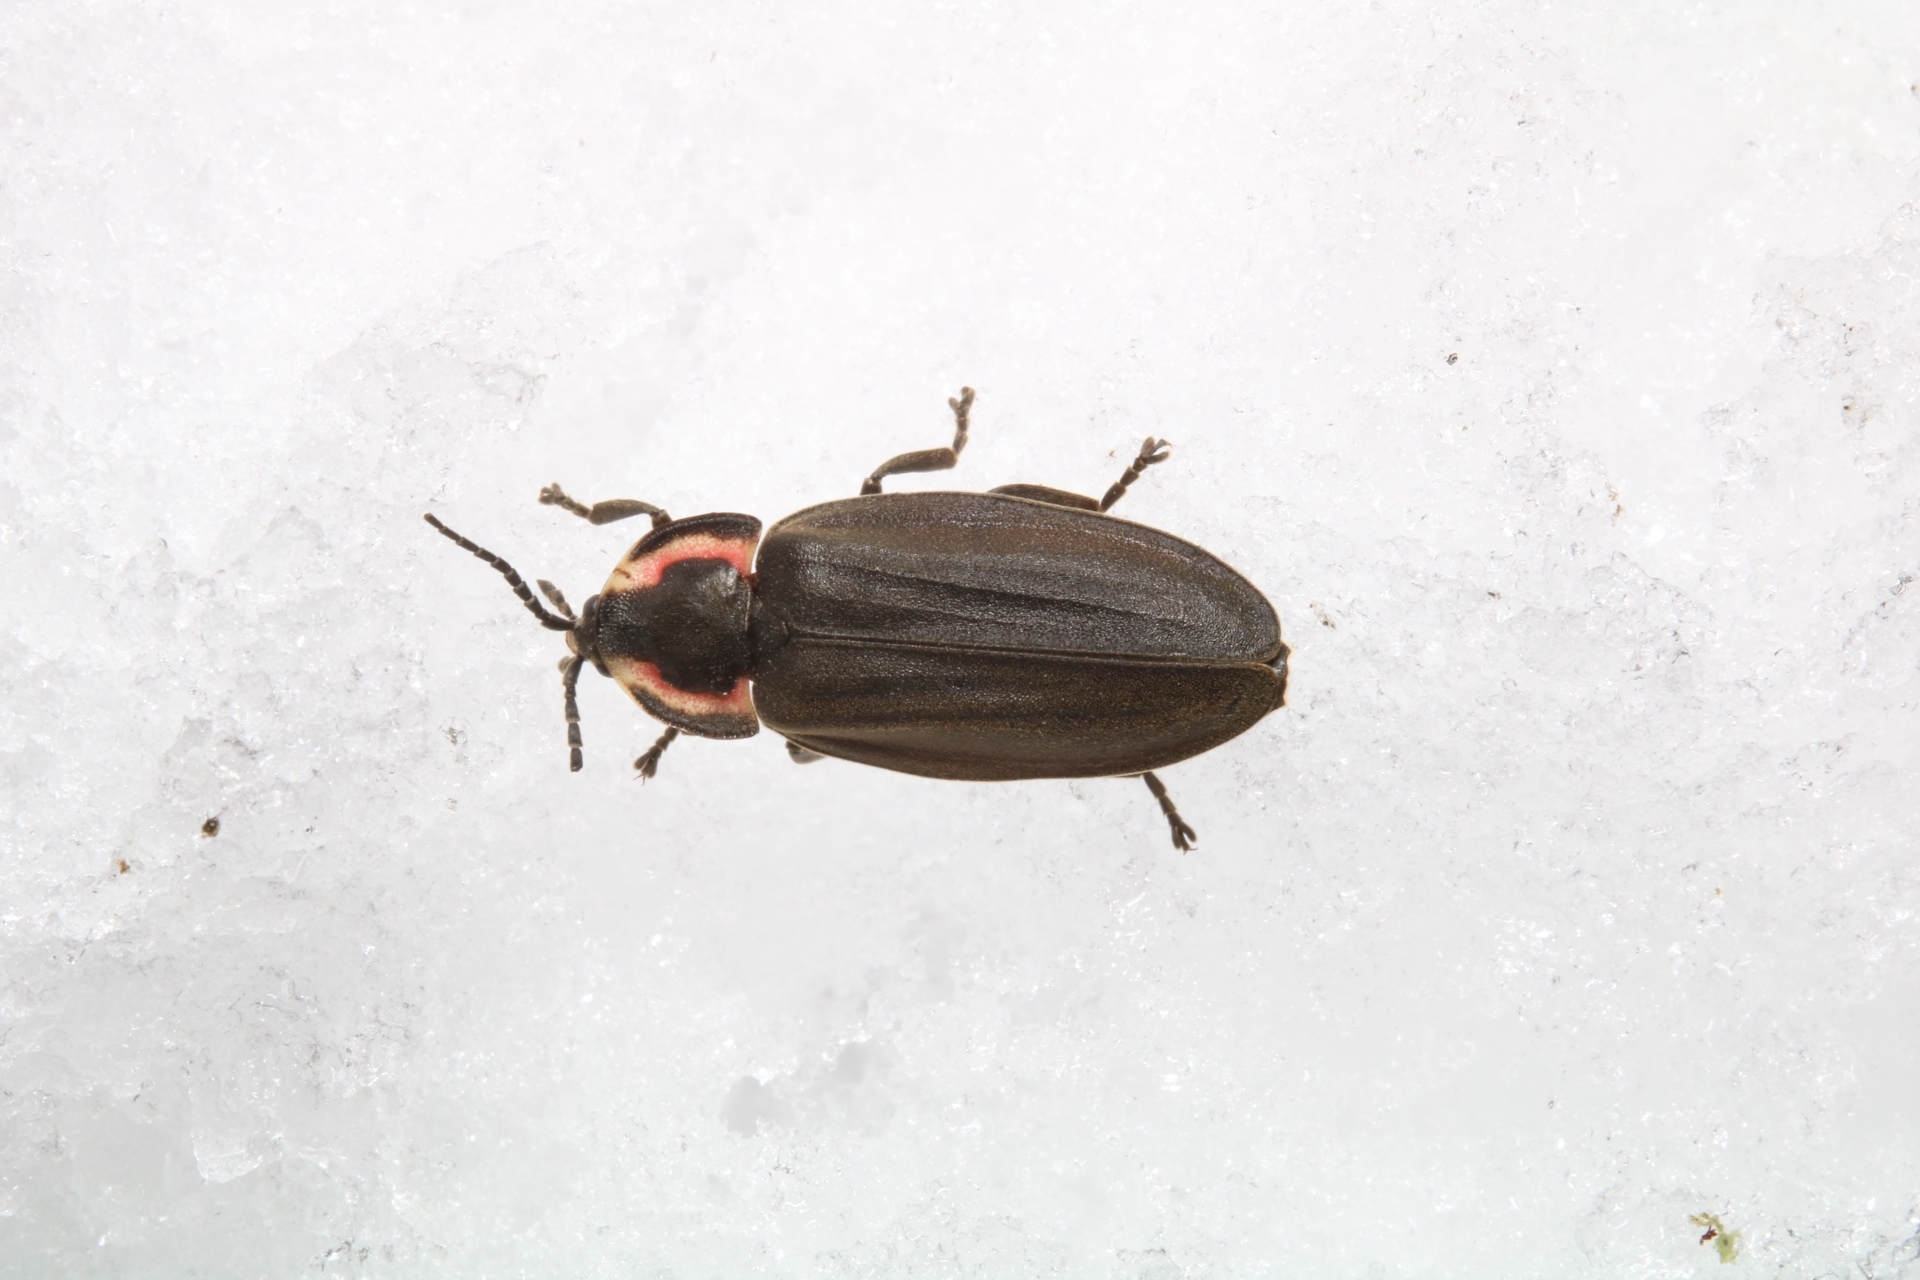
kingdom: Animalia
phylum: Arthropoda
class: Insecta
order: Coleoptera
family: Lampyridae
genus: Photinus
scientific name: Photinus corrusca
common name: Winter firefly
